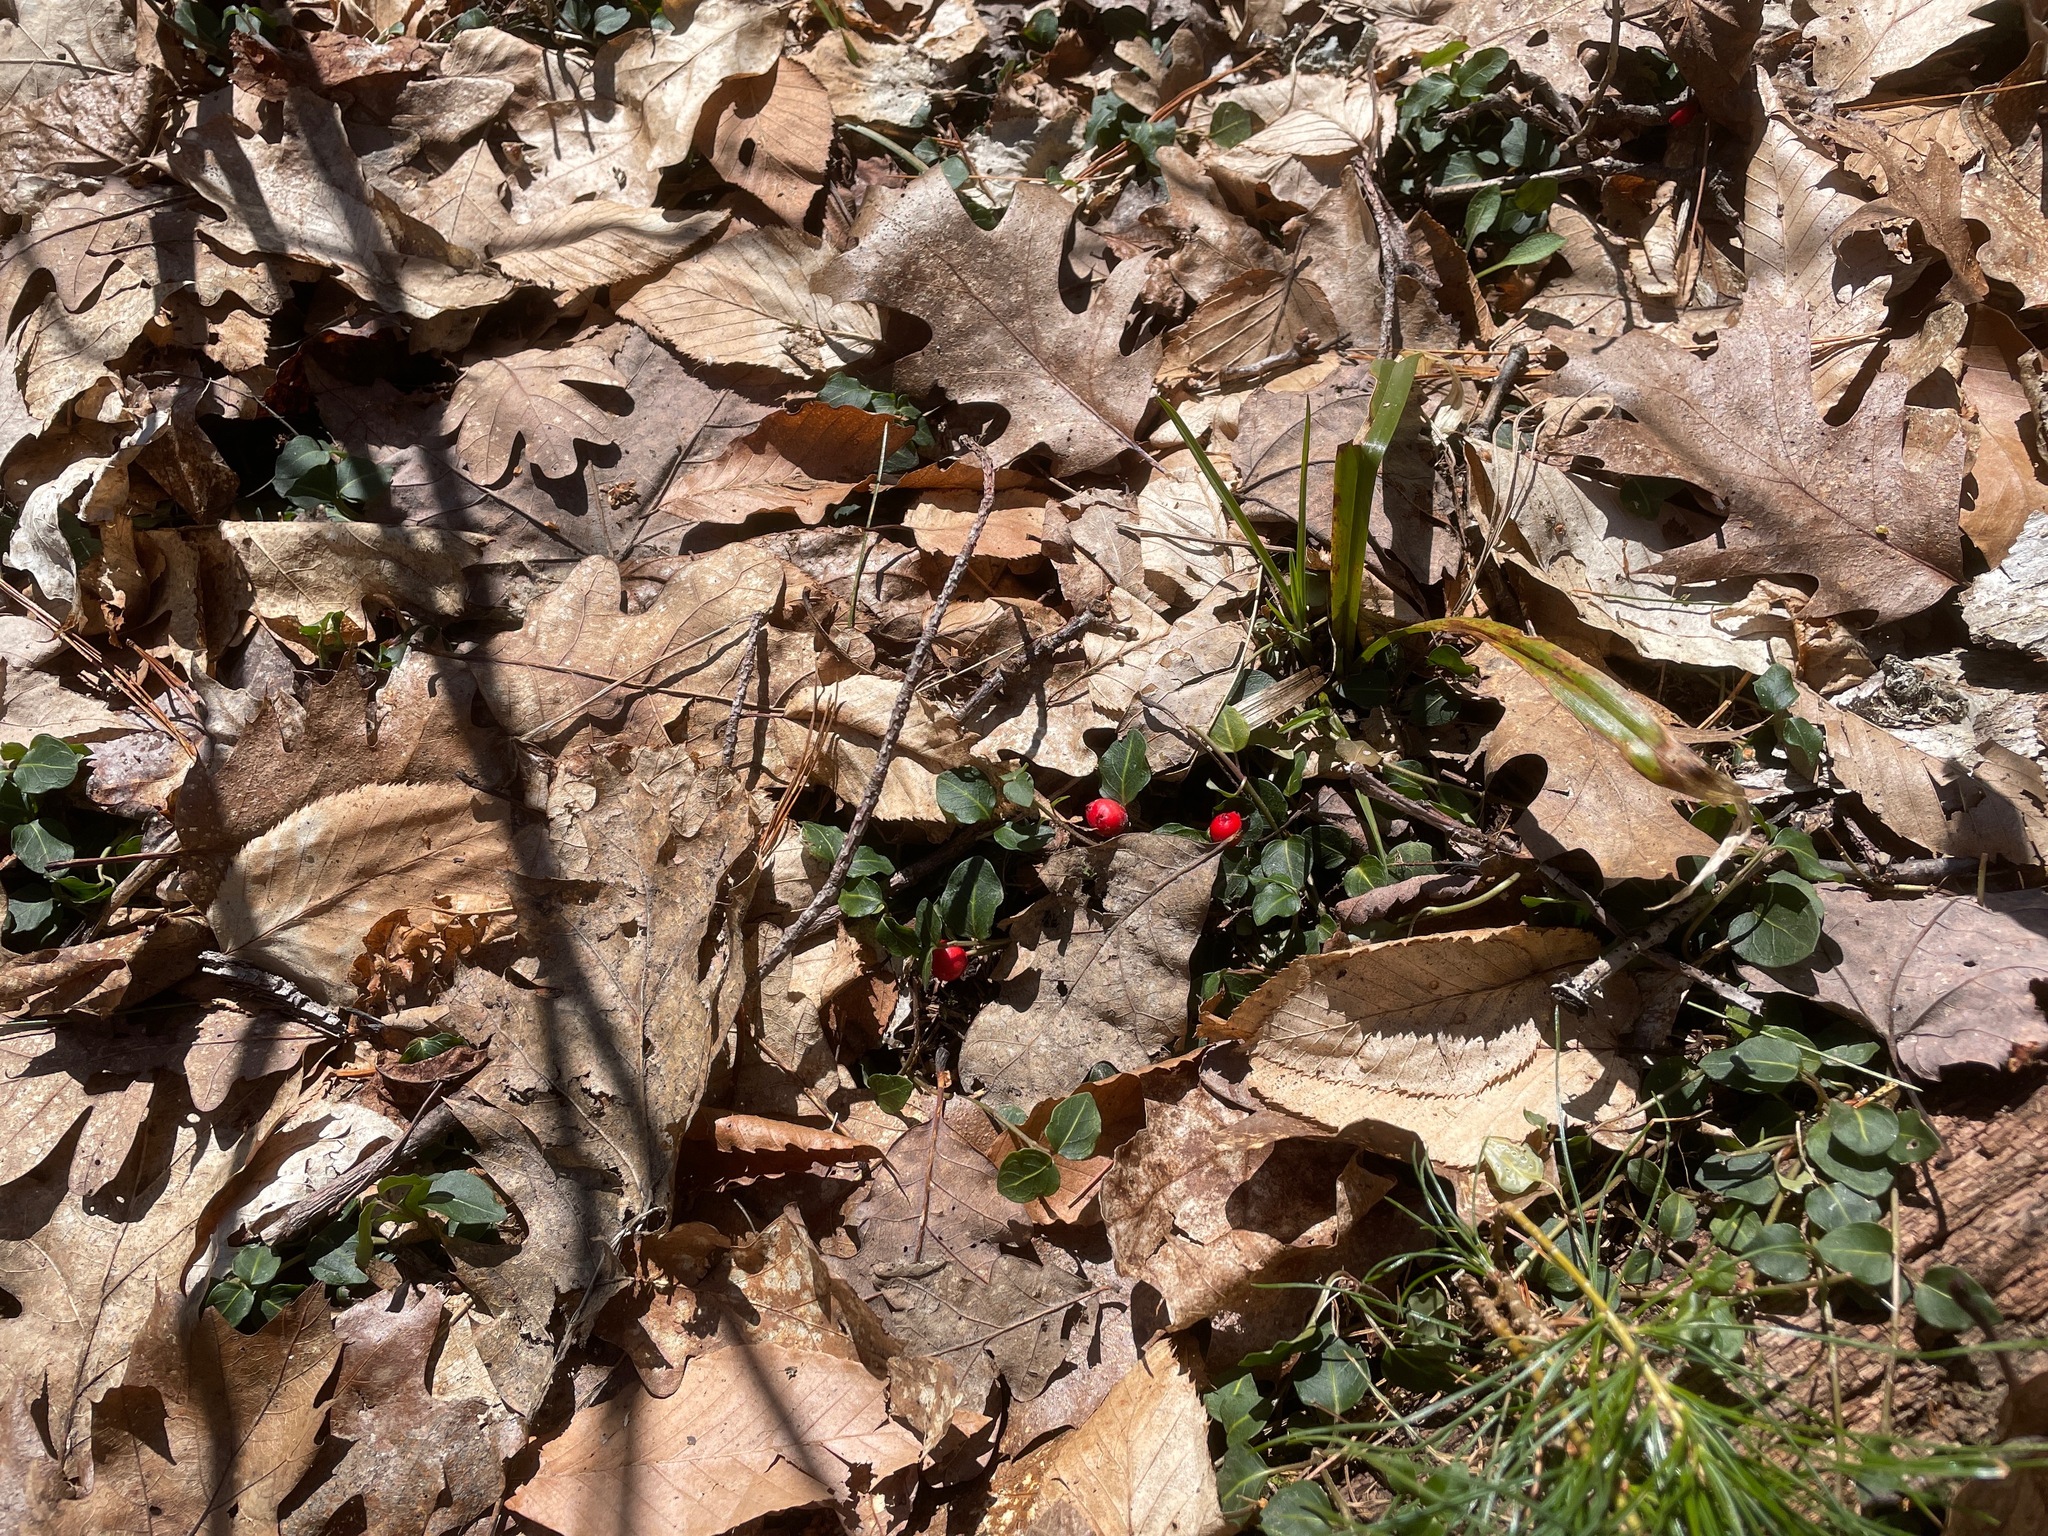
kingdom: Plantae
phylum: Tracheophyta
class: Magnoliopsida
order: Gentianales
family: Rubiaceae
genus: Mitchella
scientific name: Mitchella repens
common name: Partridge-berry
